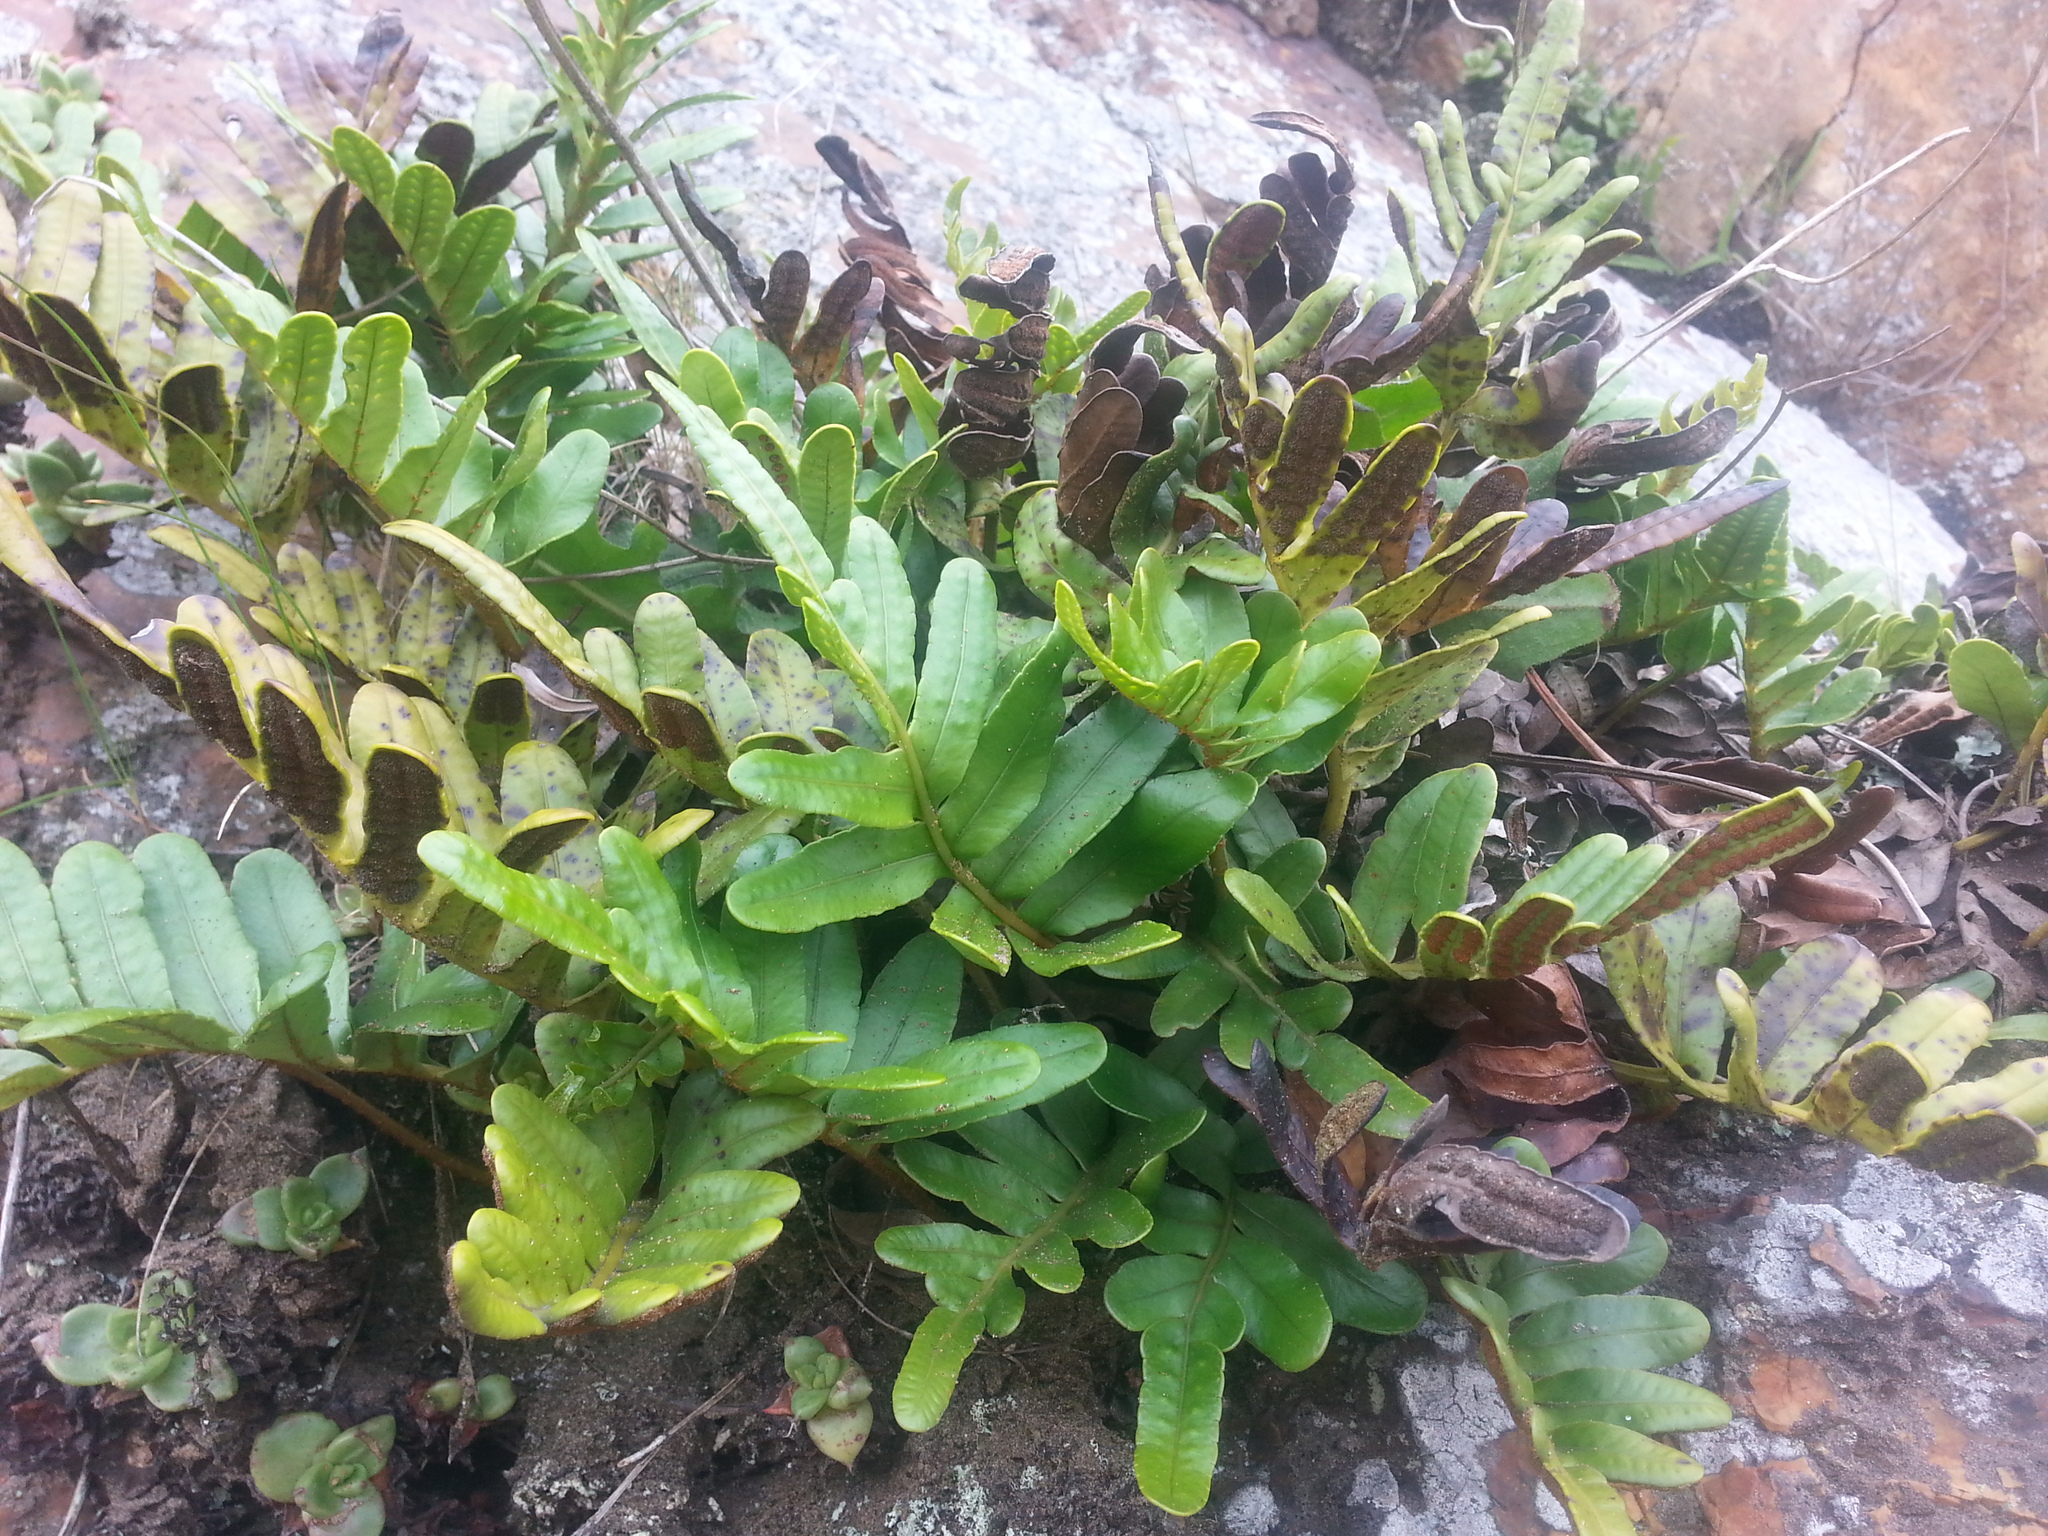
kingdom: Plantae
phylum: Tracheophyta
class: Polypodiopsida
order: Polypodiales
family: Polypodiaceae
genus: Polypodium
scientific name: Polypodium scouleri
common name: Scouler's polypody
